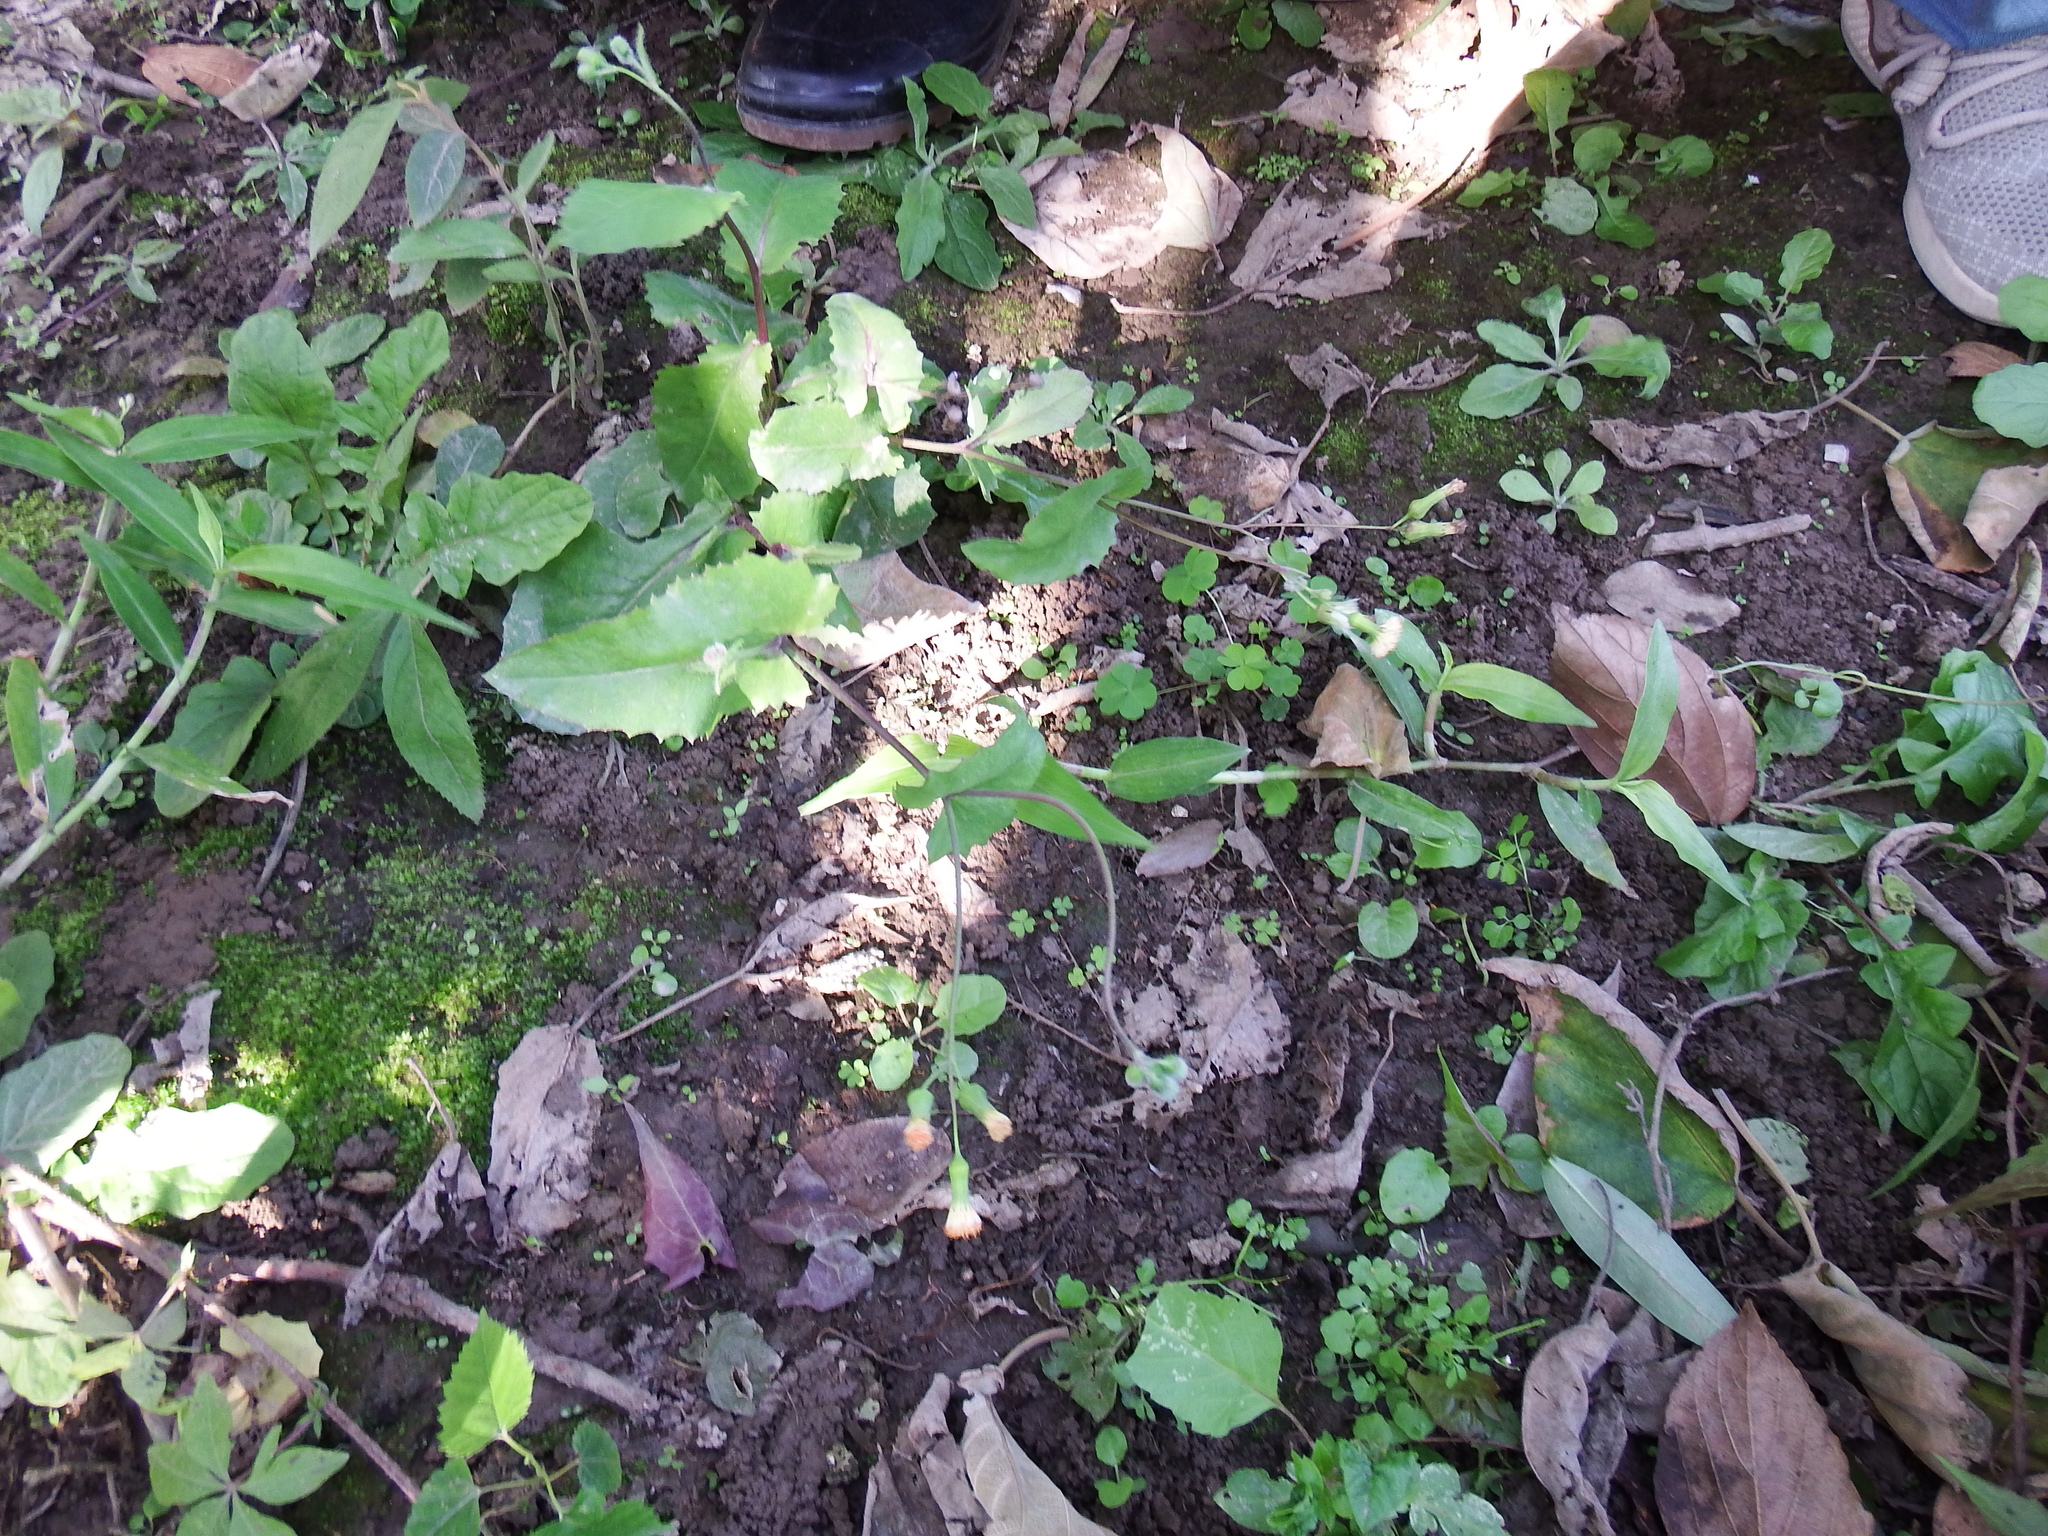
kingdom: Plantae
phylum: Tracheophyta
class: Magnoliopsida
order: Asterales
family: Asteraceae
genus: Emilia
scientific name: Emilia praetermissa
